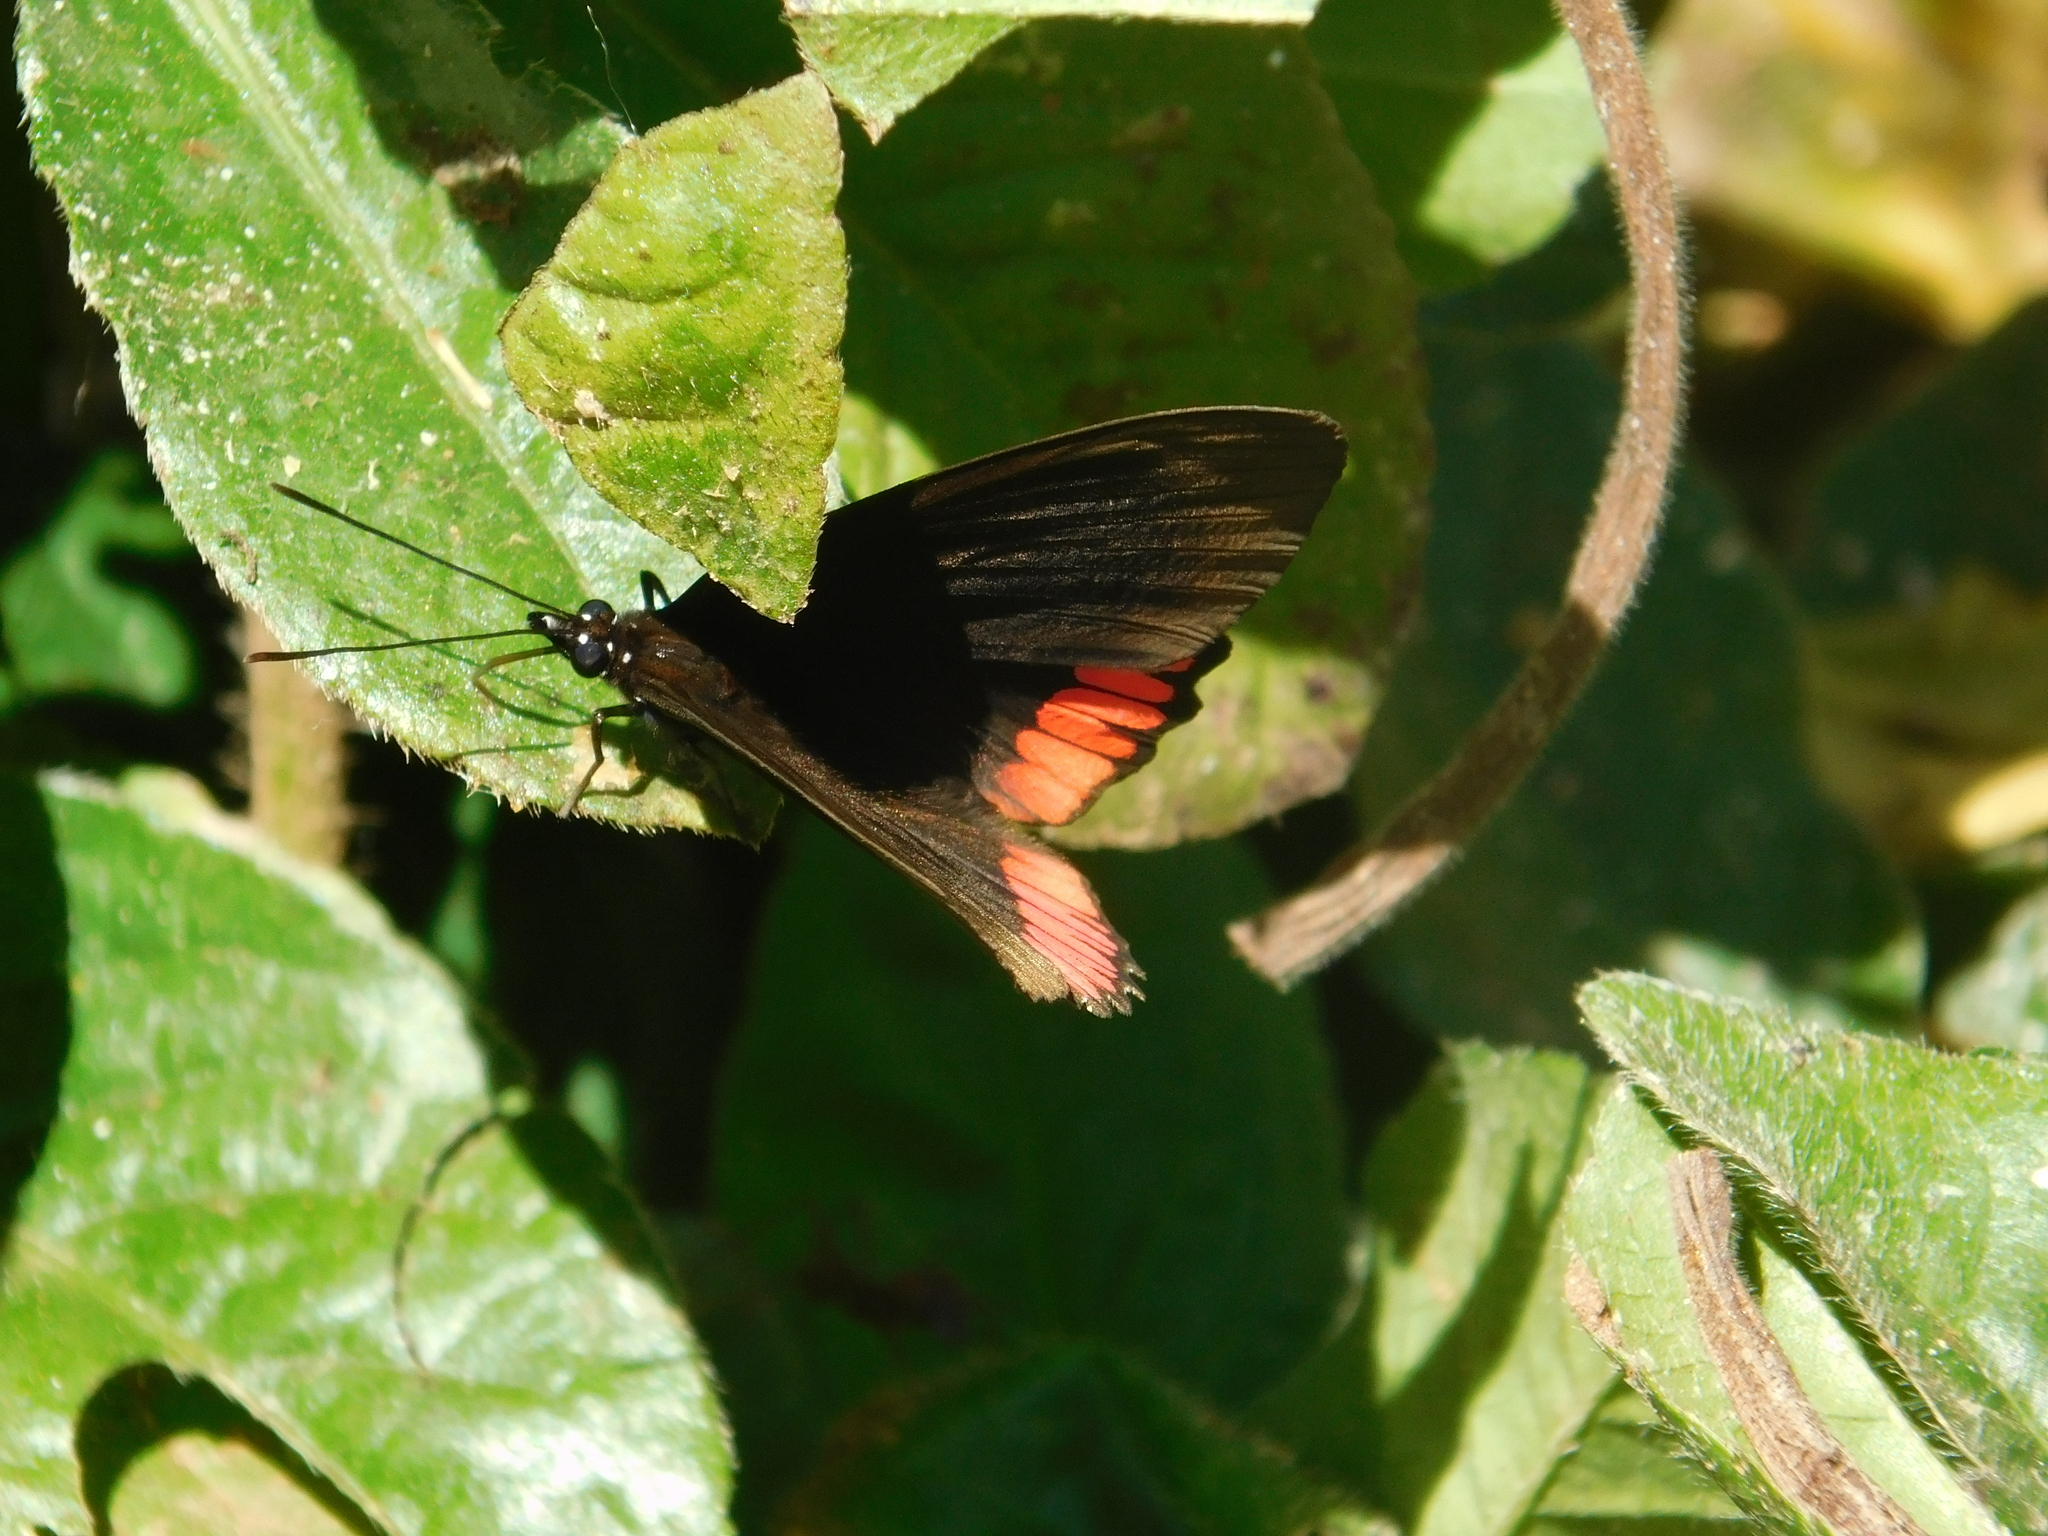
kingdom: Animalia
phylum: Arthropoda
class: Insecta
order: Lepidoptera
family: Sesiidae
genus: Sesia
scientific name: Sesia Biblis hyperia
